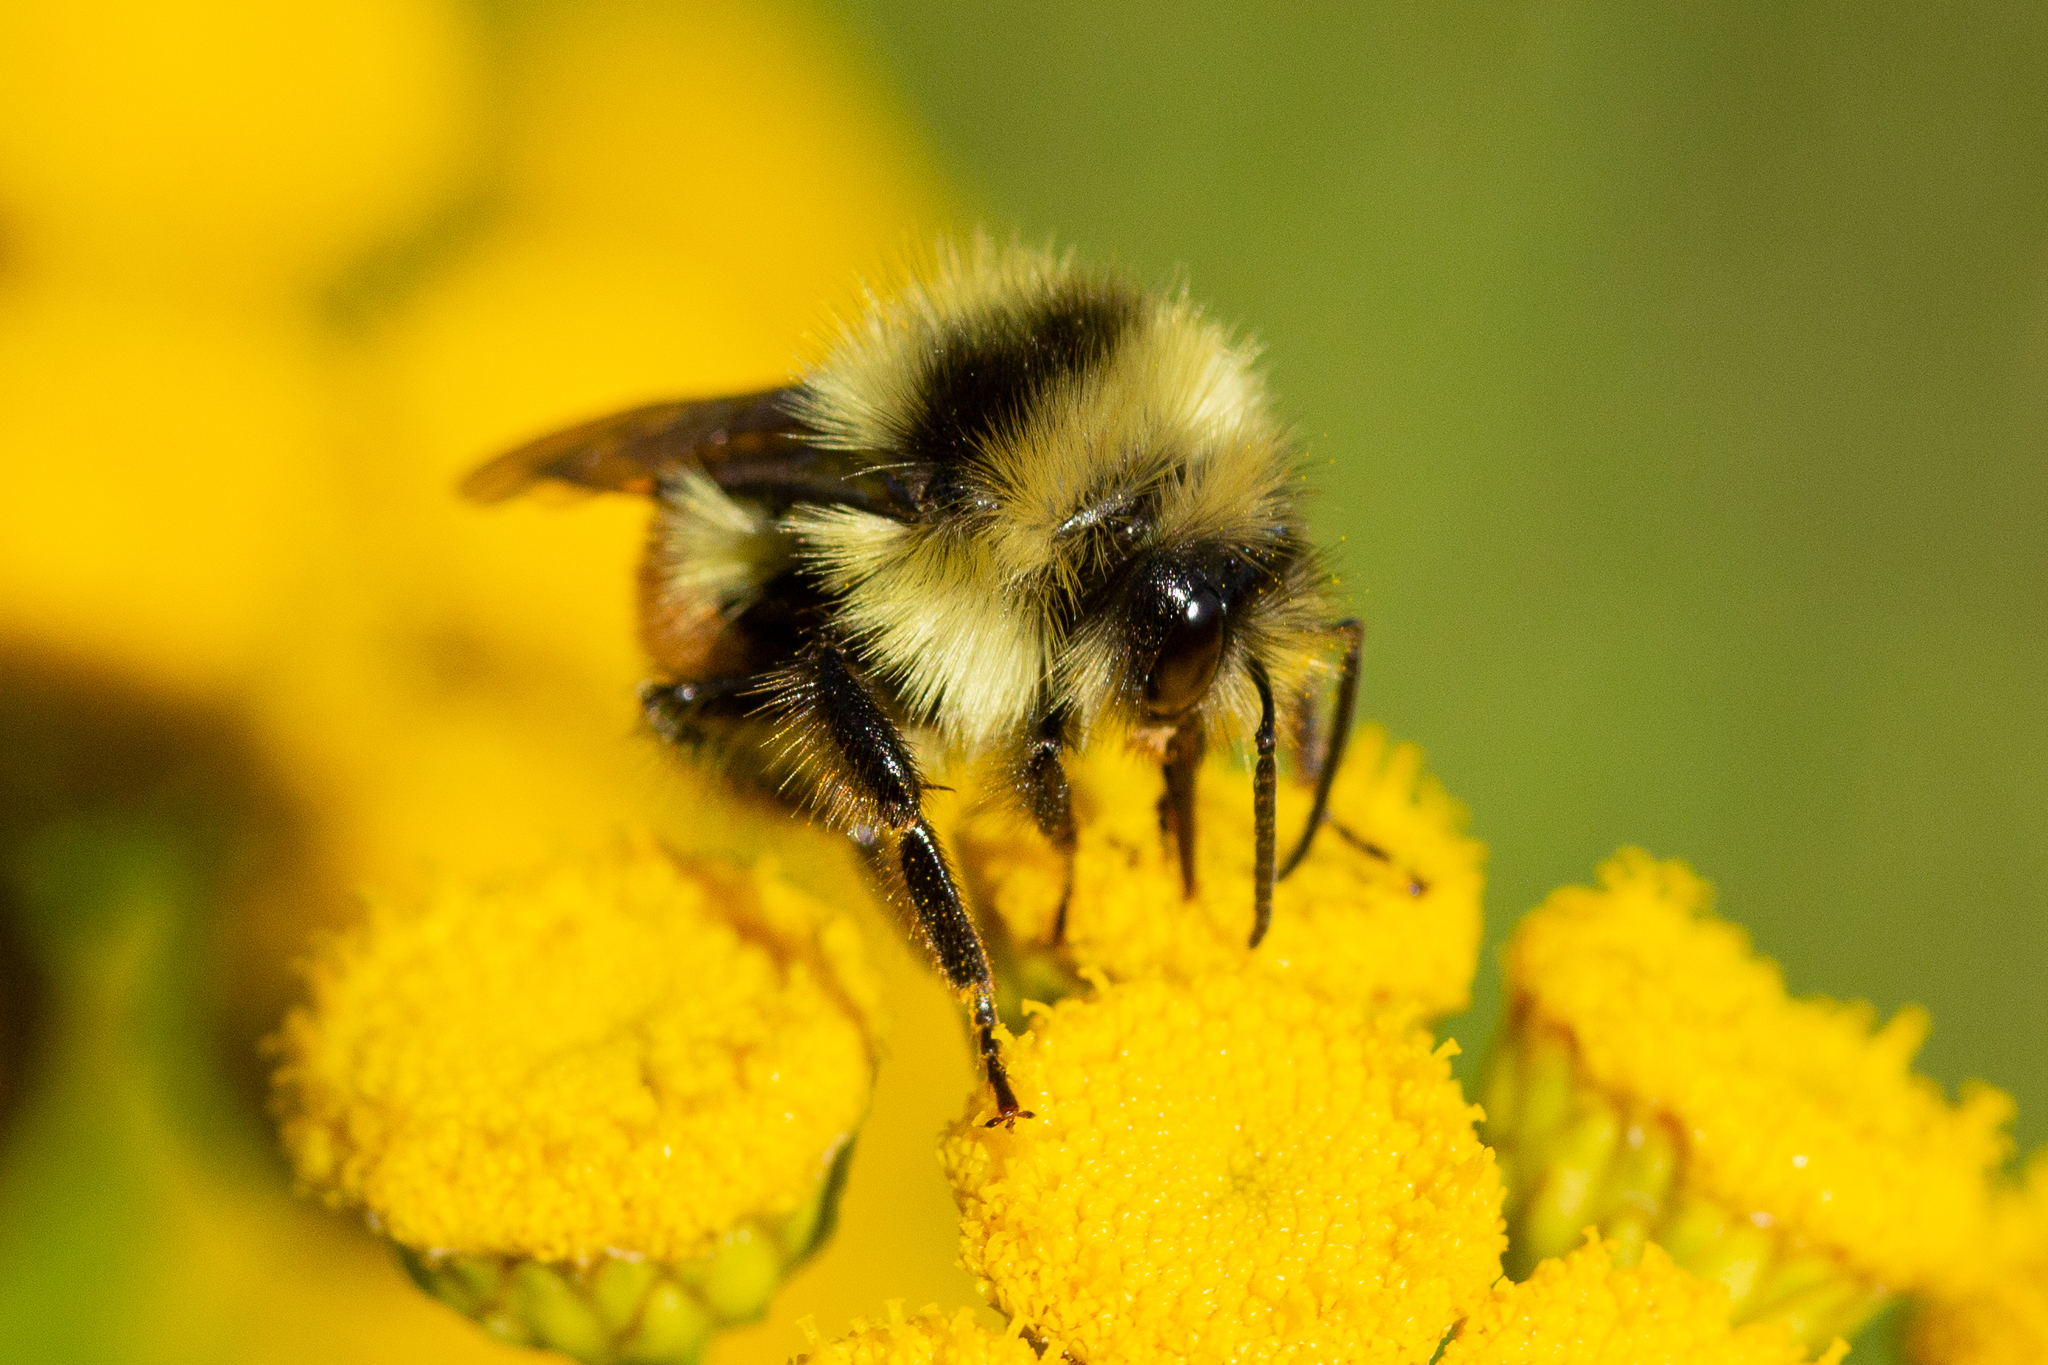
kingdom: Animalia
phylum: Arthropoda
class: Insecta
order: Hymenoptera
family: Apidae
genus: Bombus
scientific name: Bombus ternarius
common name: Tri-colored bumble bee
